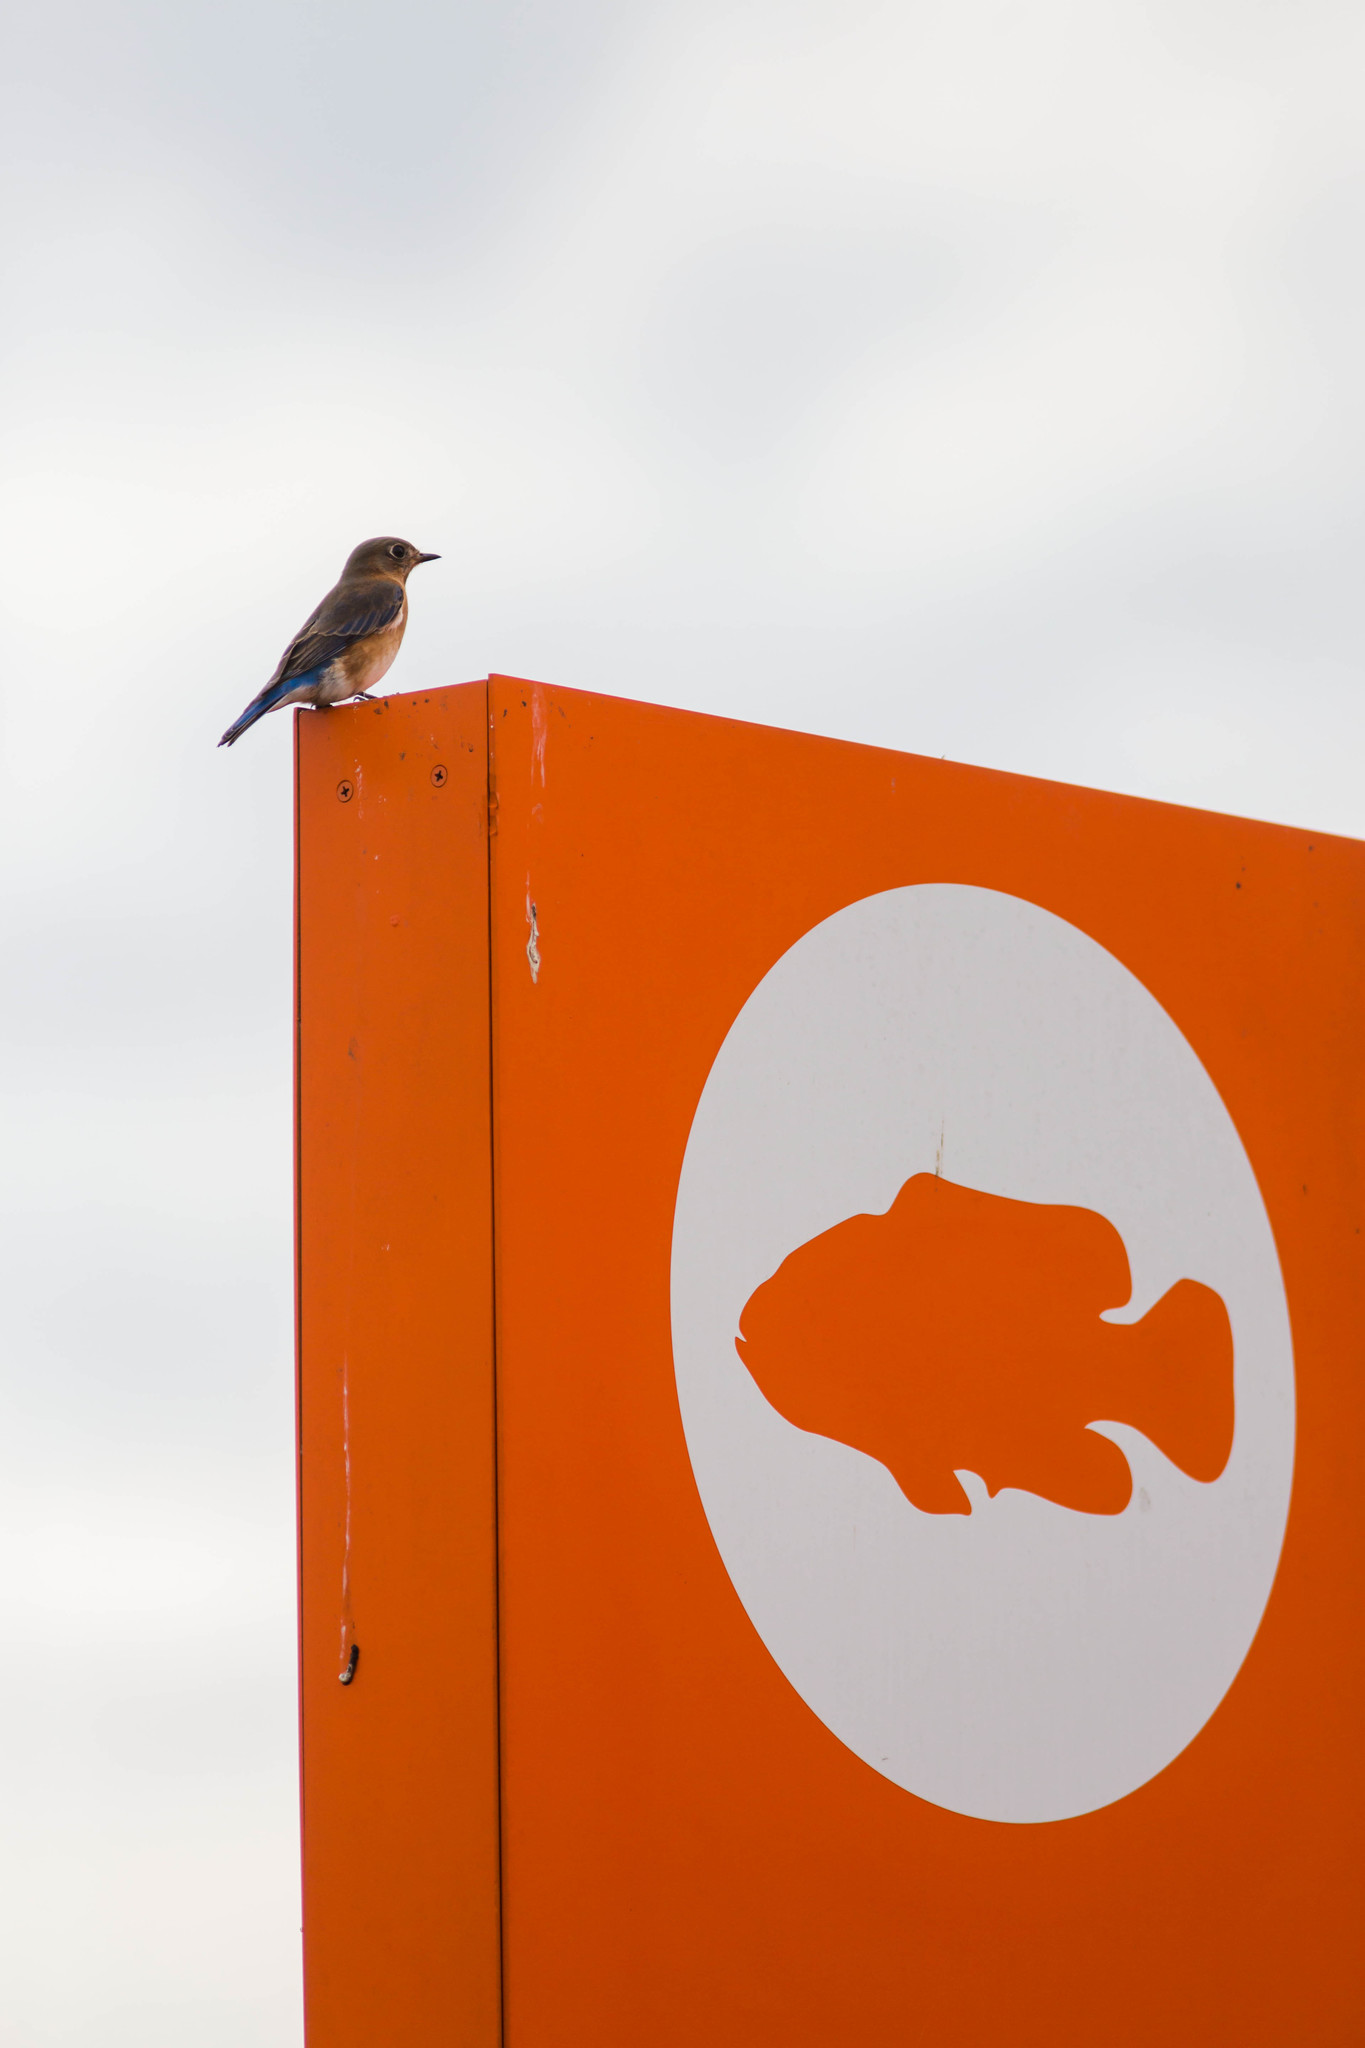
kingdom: Animalia
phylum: Chordata
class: Aves
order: Passeriformes
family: Turdidae
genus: Sialia
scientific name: Sialia sialis
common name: Eastern bluebird
